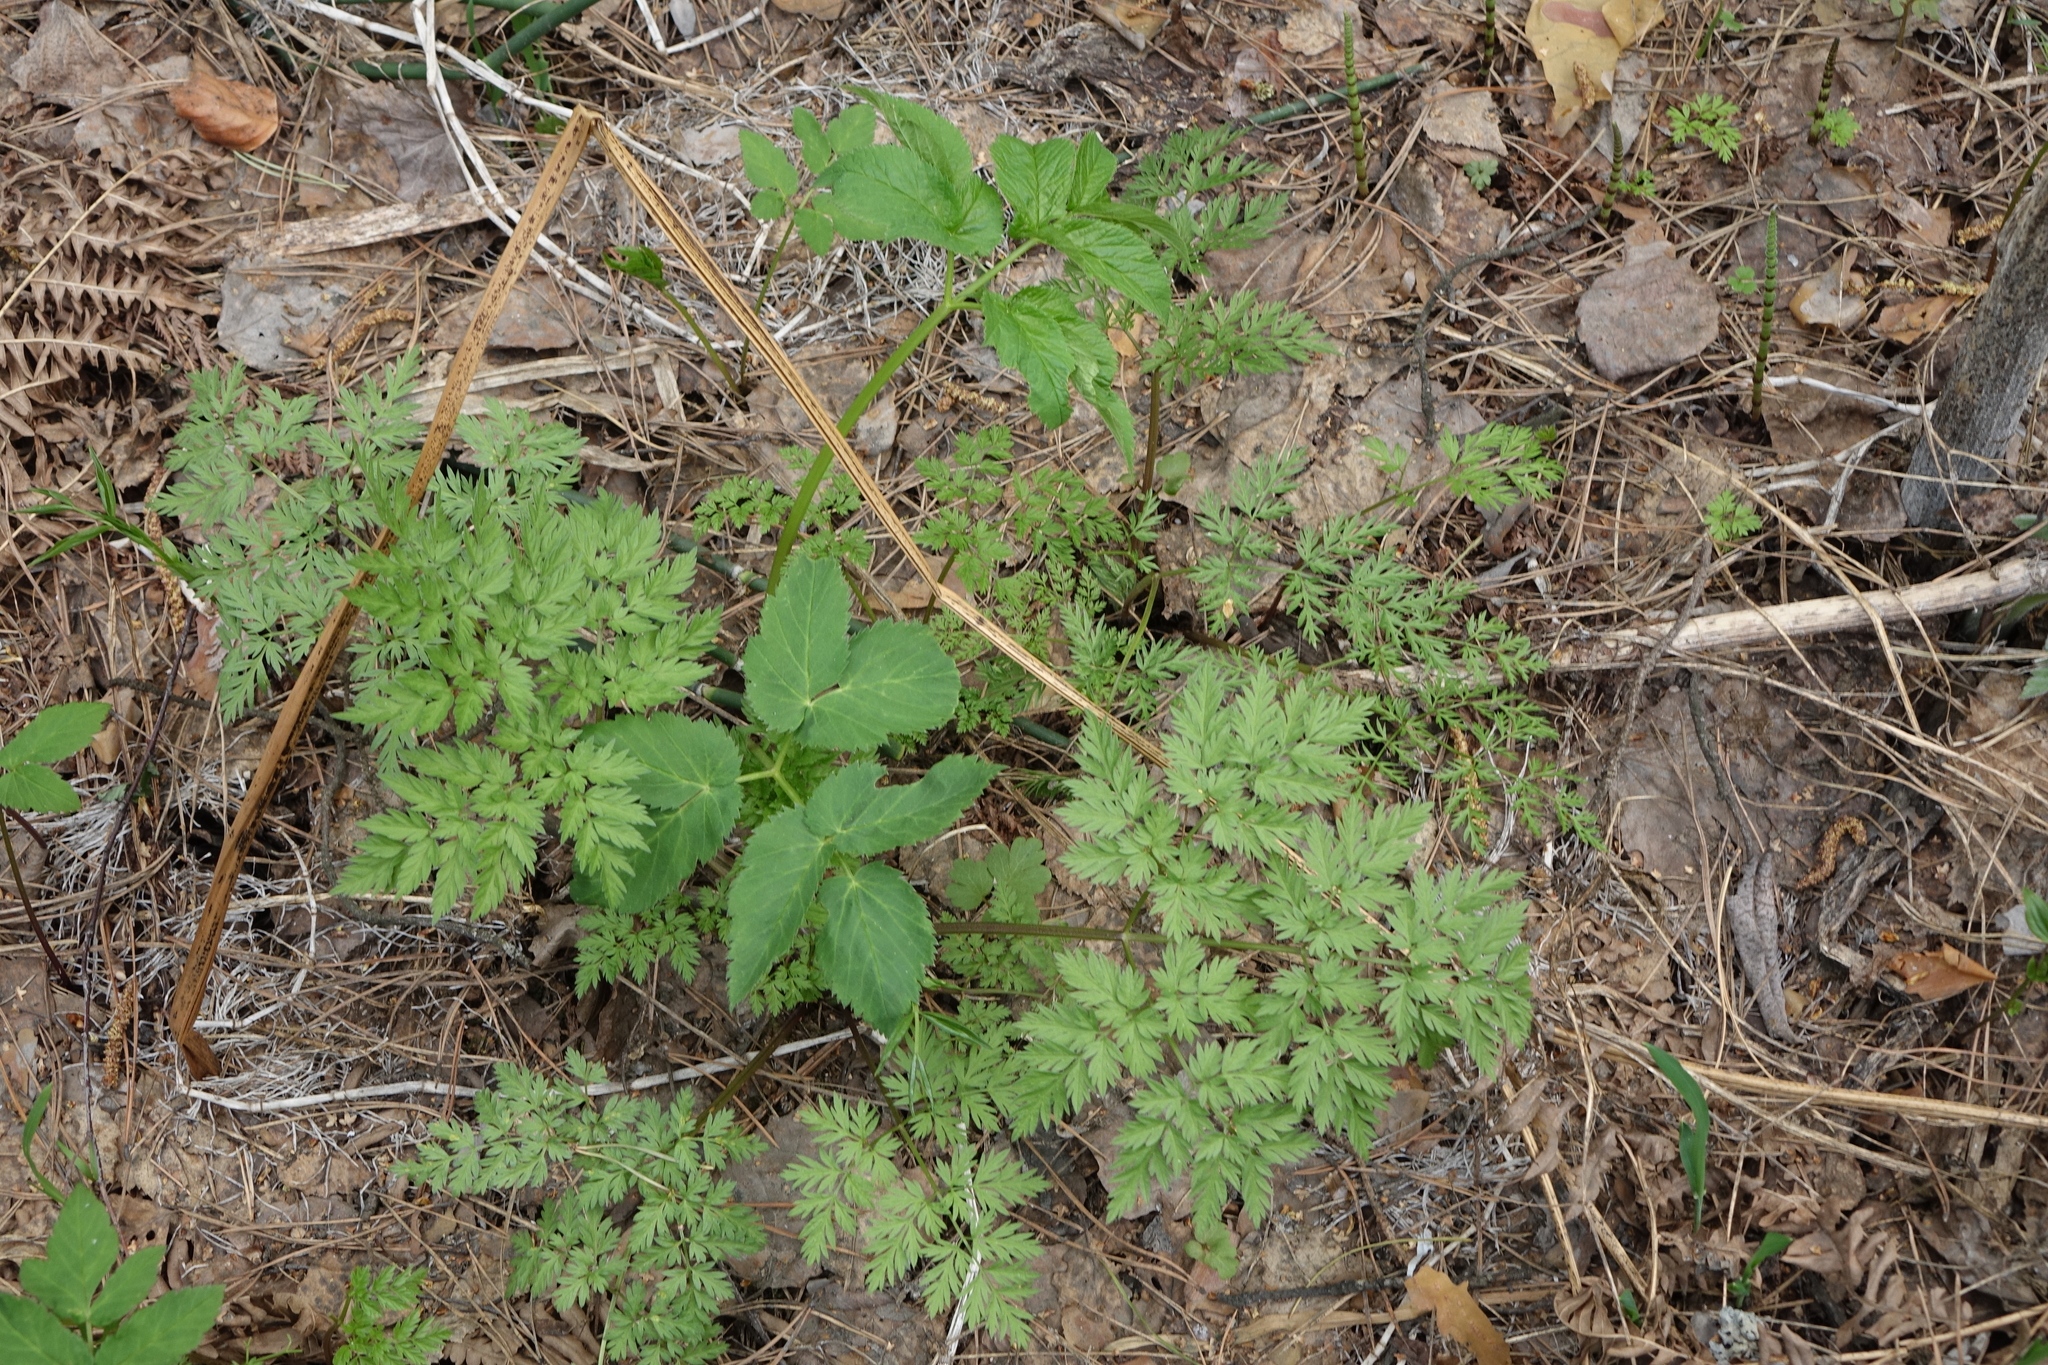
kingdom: Plantae
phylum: Tracheophyta
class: Magnoliopsida
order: Apiales
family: Apiaceae
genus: Anthriscus
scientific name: Anthriscus sylvestris
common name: Cow parsley
